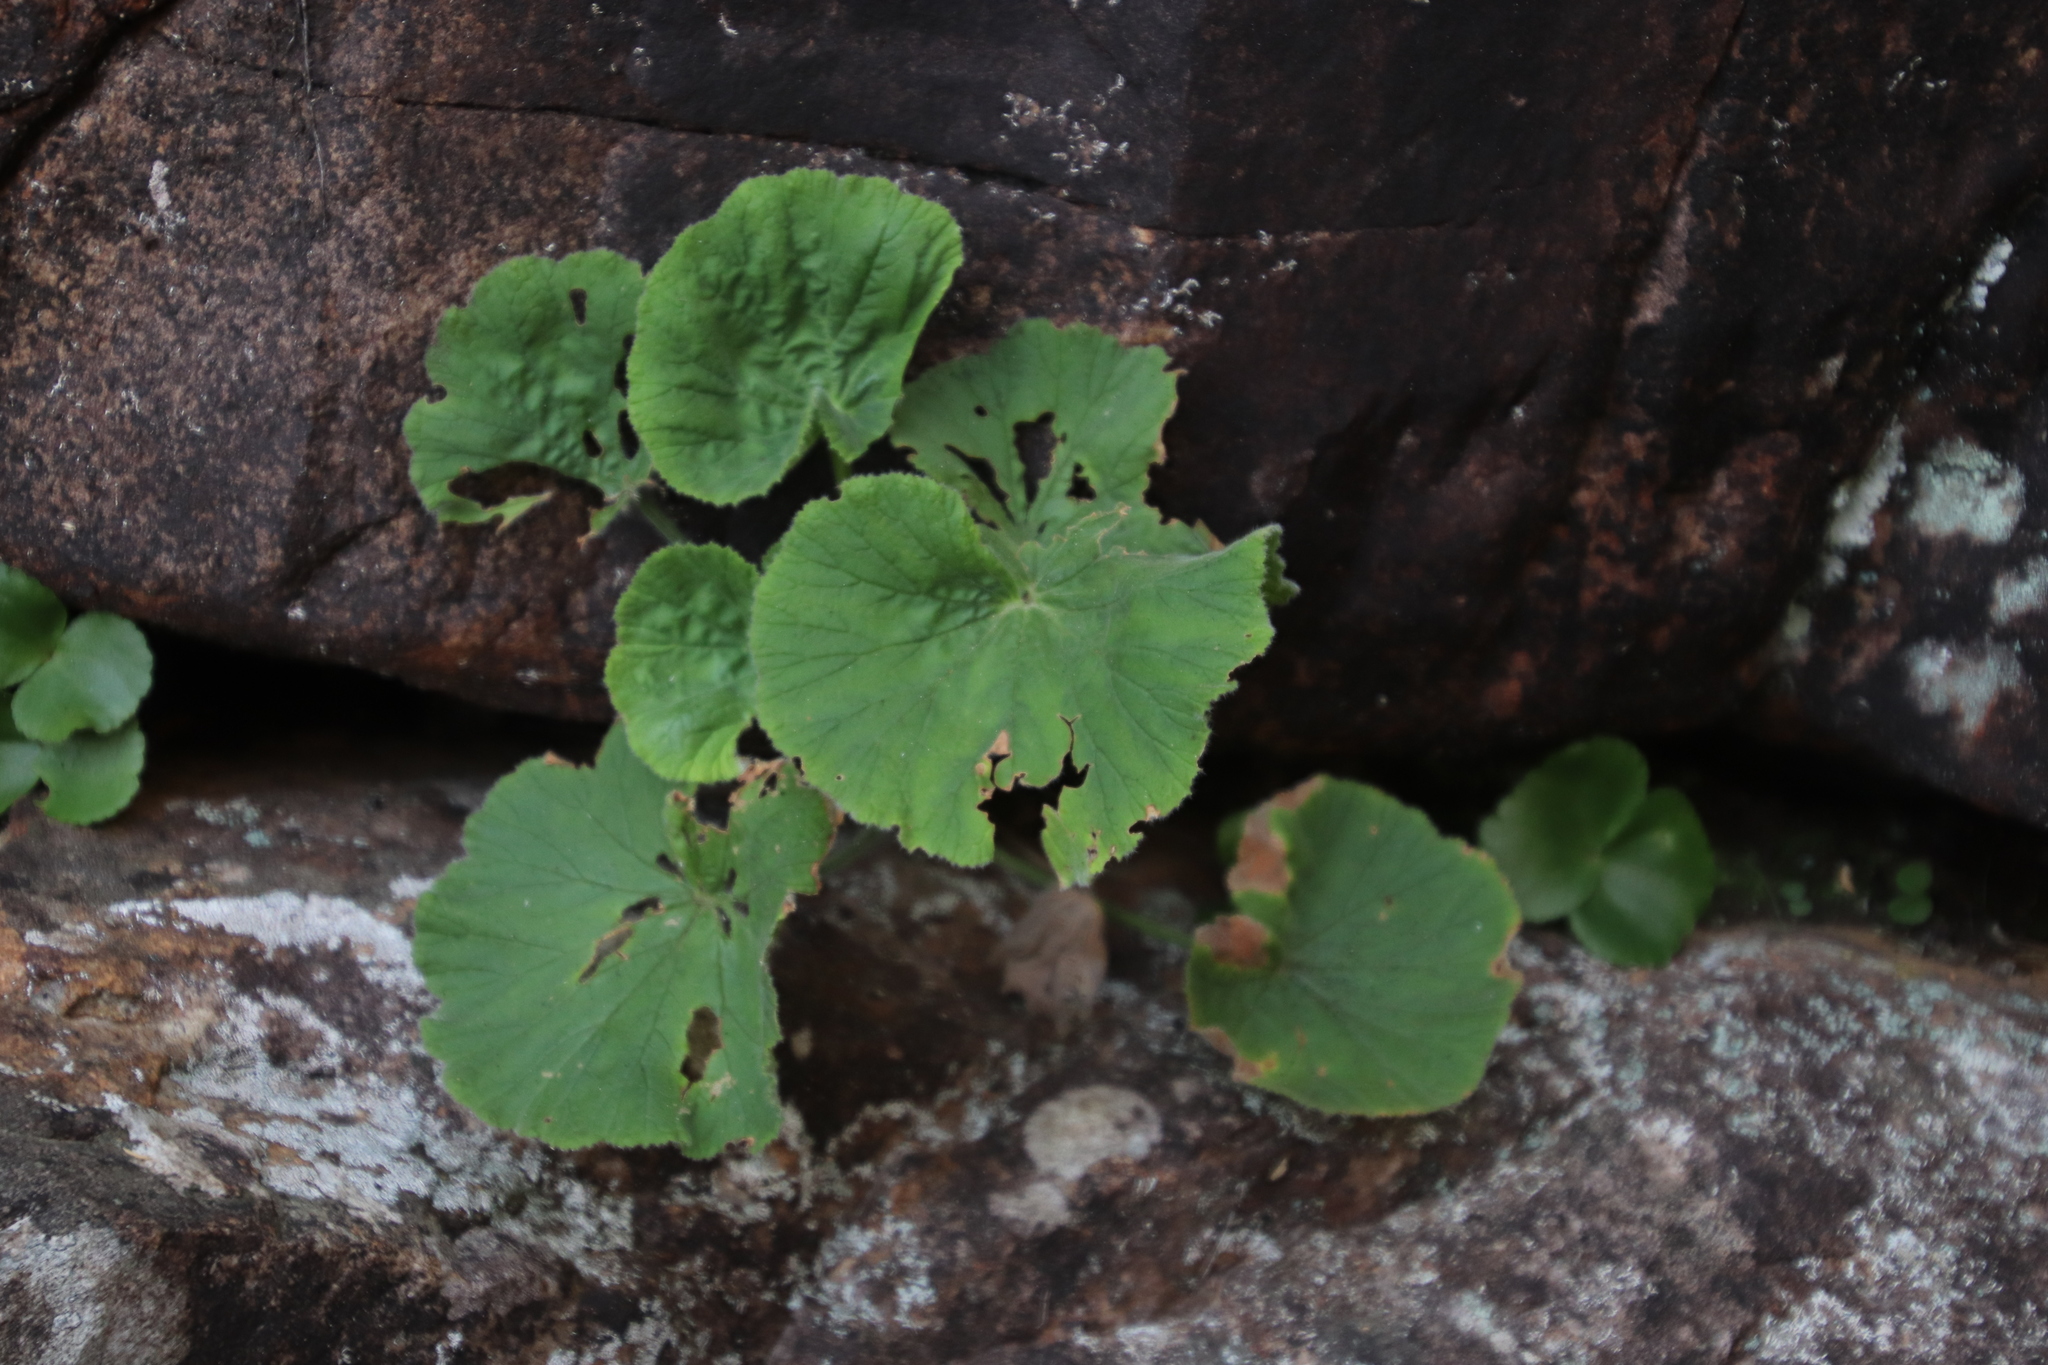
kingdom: Plantae
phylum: Tracheophyta
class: Magnoliopsida
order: Geraniales
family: Geraniaceae
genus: Pelargonium
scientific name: Pelargonium cucullatum
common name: Tree pelargonium
